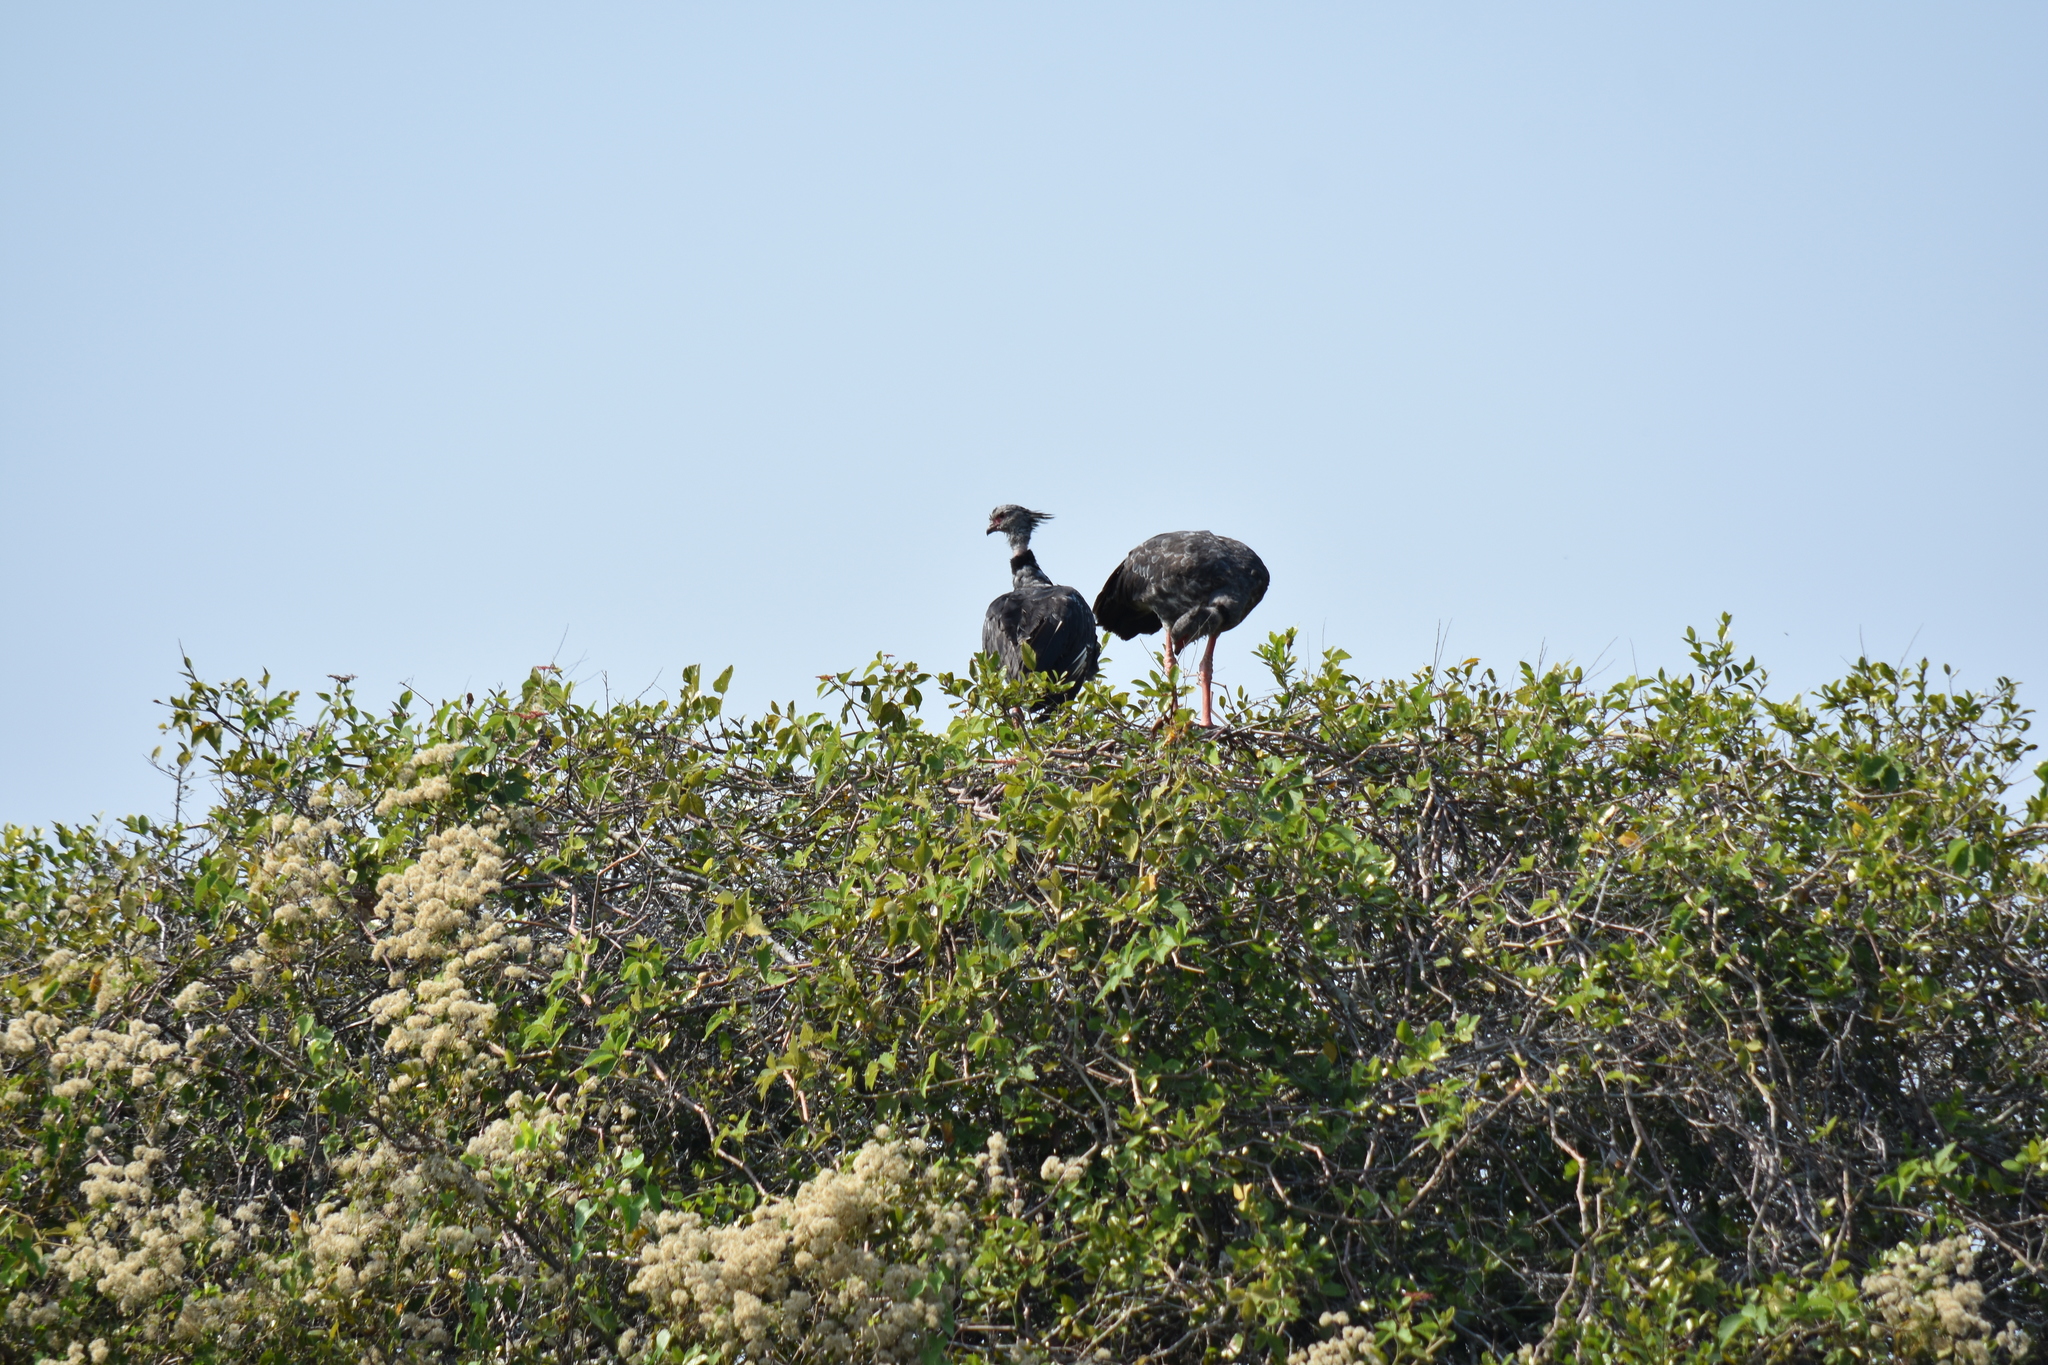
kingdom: Animalia
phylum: Chordata
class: Aves
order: Anseriformes
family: Anhimidae
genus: Chauna
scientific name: Chauna torquata
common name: Southern screamer
